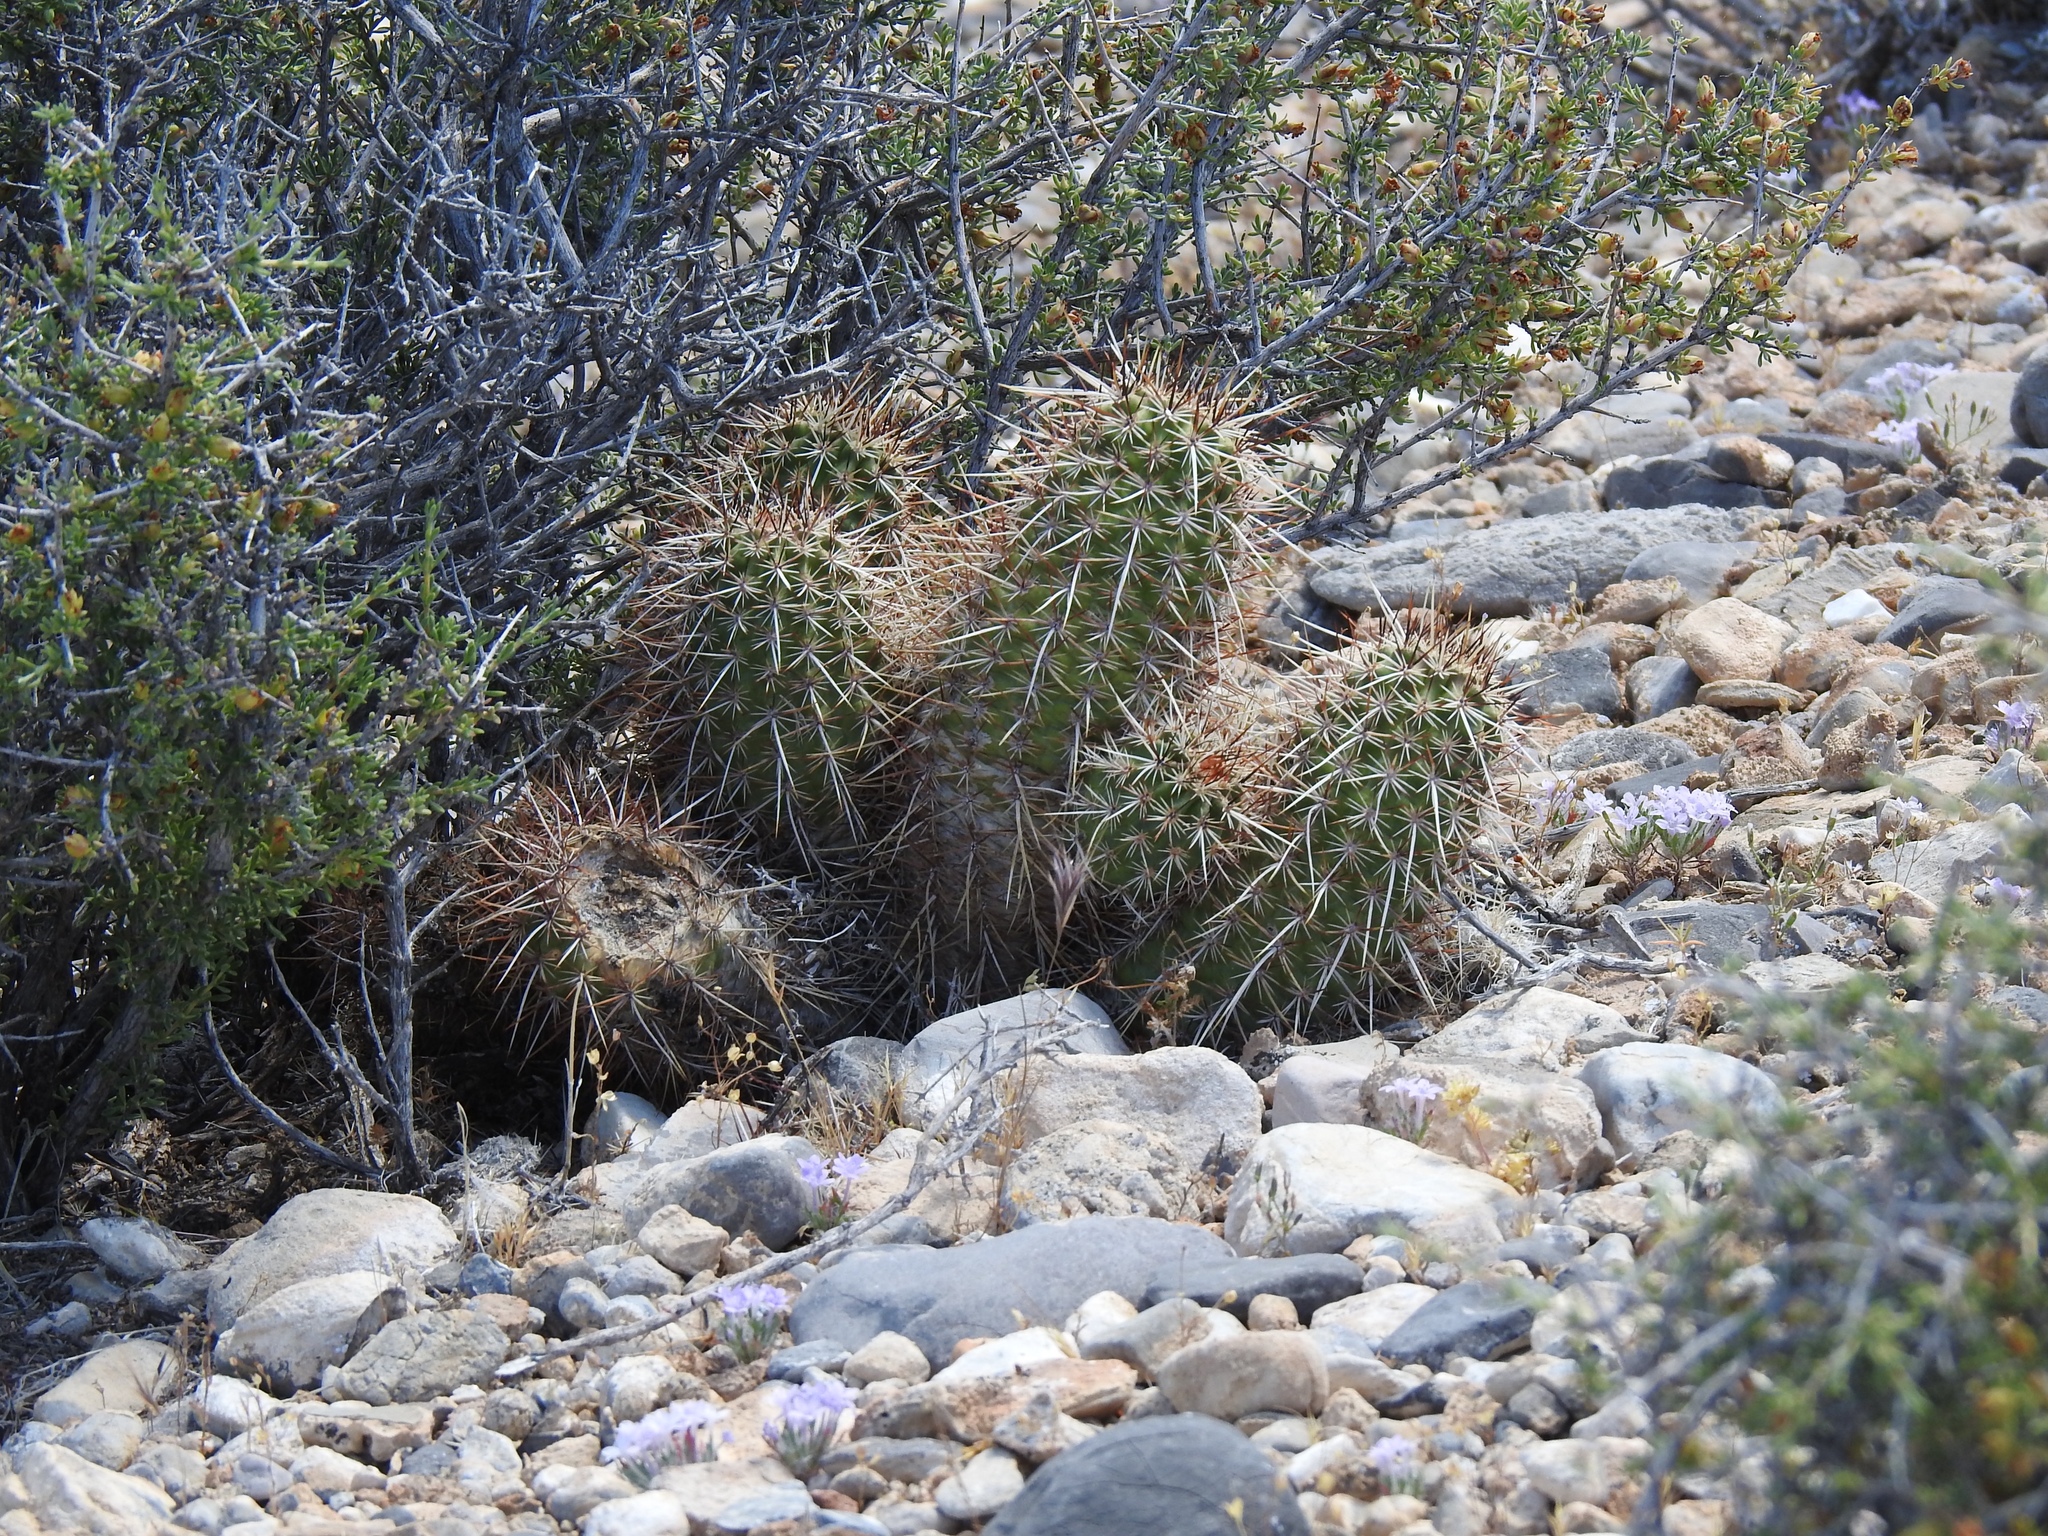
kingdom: Plantae
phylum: Tracheophyta
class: Magnoliopsida
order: Caryophyllales
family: Cactaceae
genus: Echinocereus
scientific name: Echinocereus engelmannii
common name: Engelmann's hedgehog cactus
